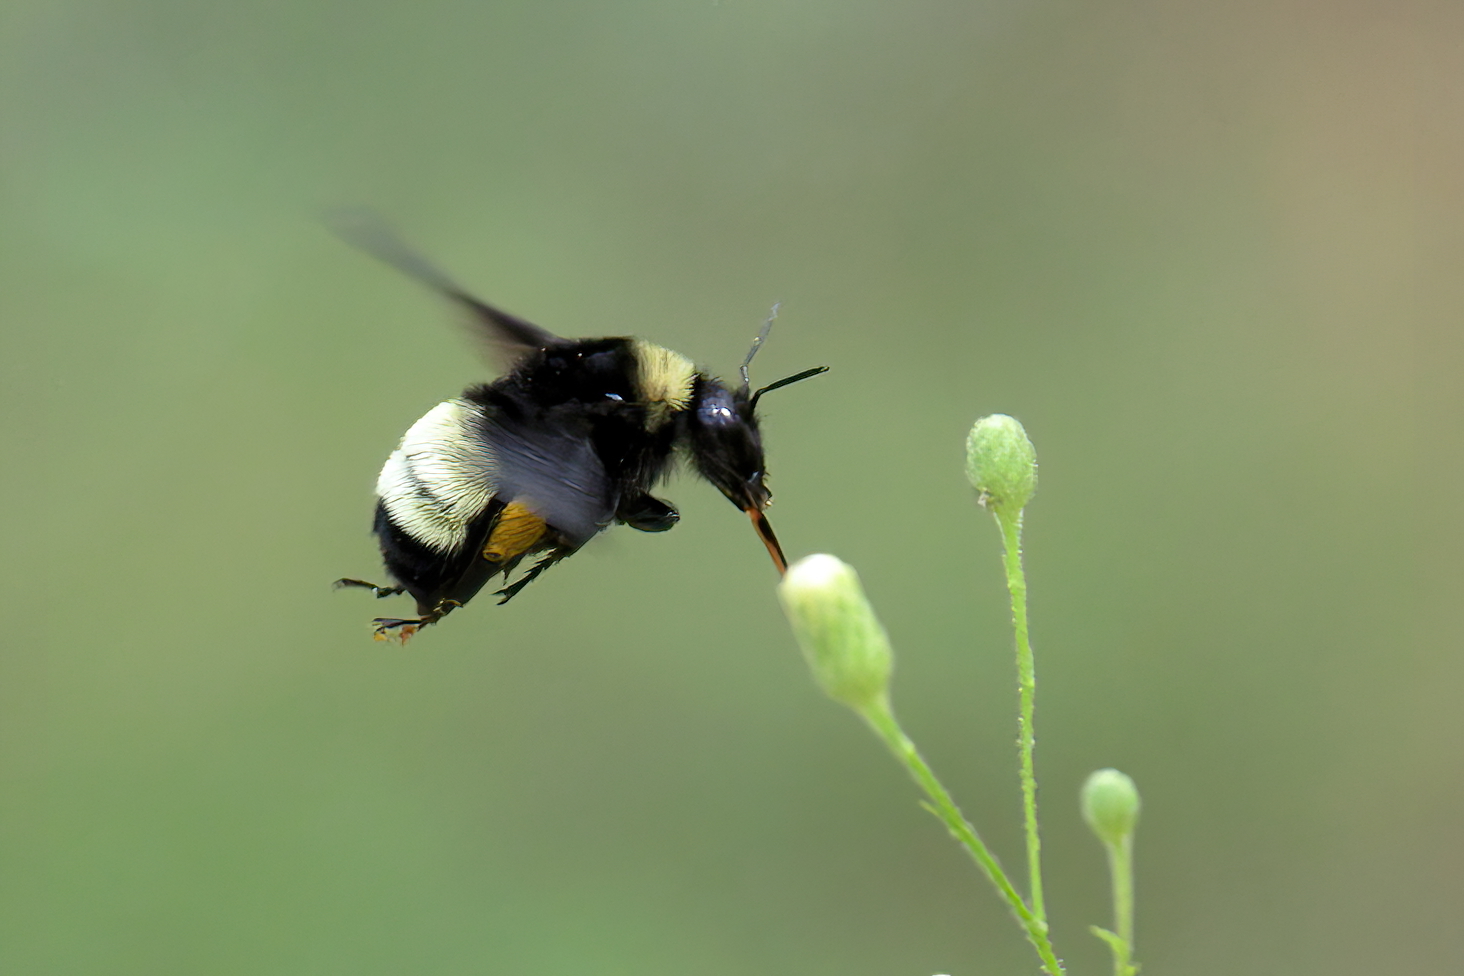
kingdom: Animalia
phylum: Arthropoda
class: Insecta
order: Hymenoptera
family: Apidae
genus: Bombus
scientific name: Bombus pensylvanicus
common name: Bumble bee
